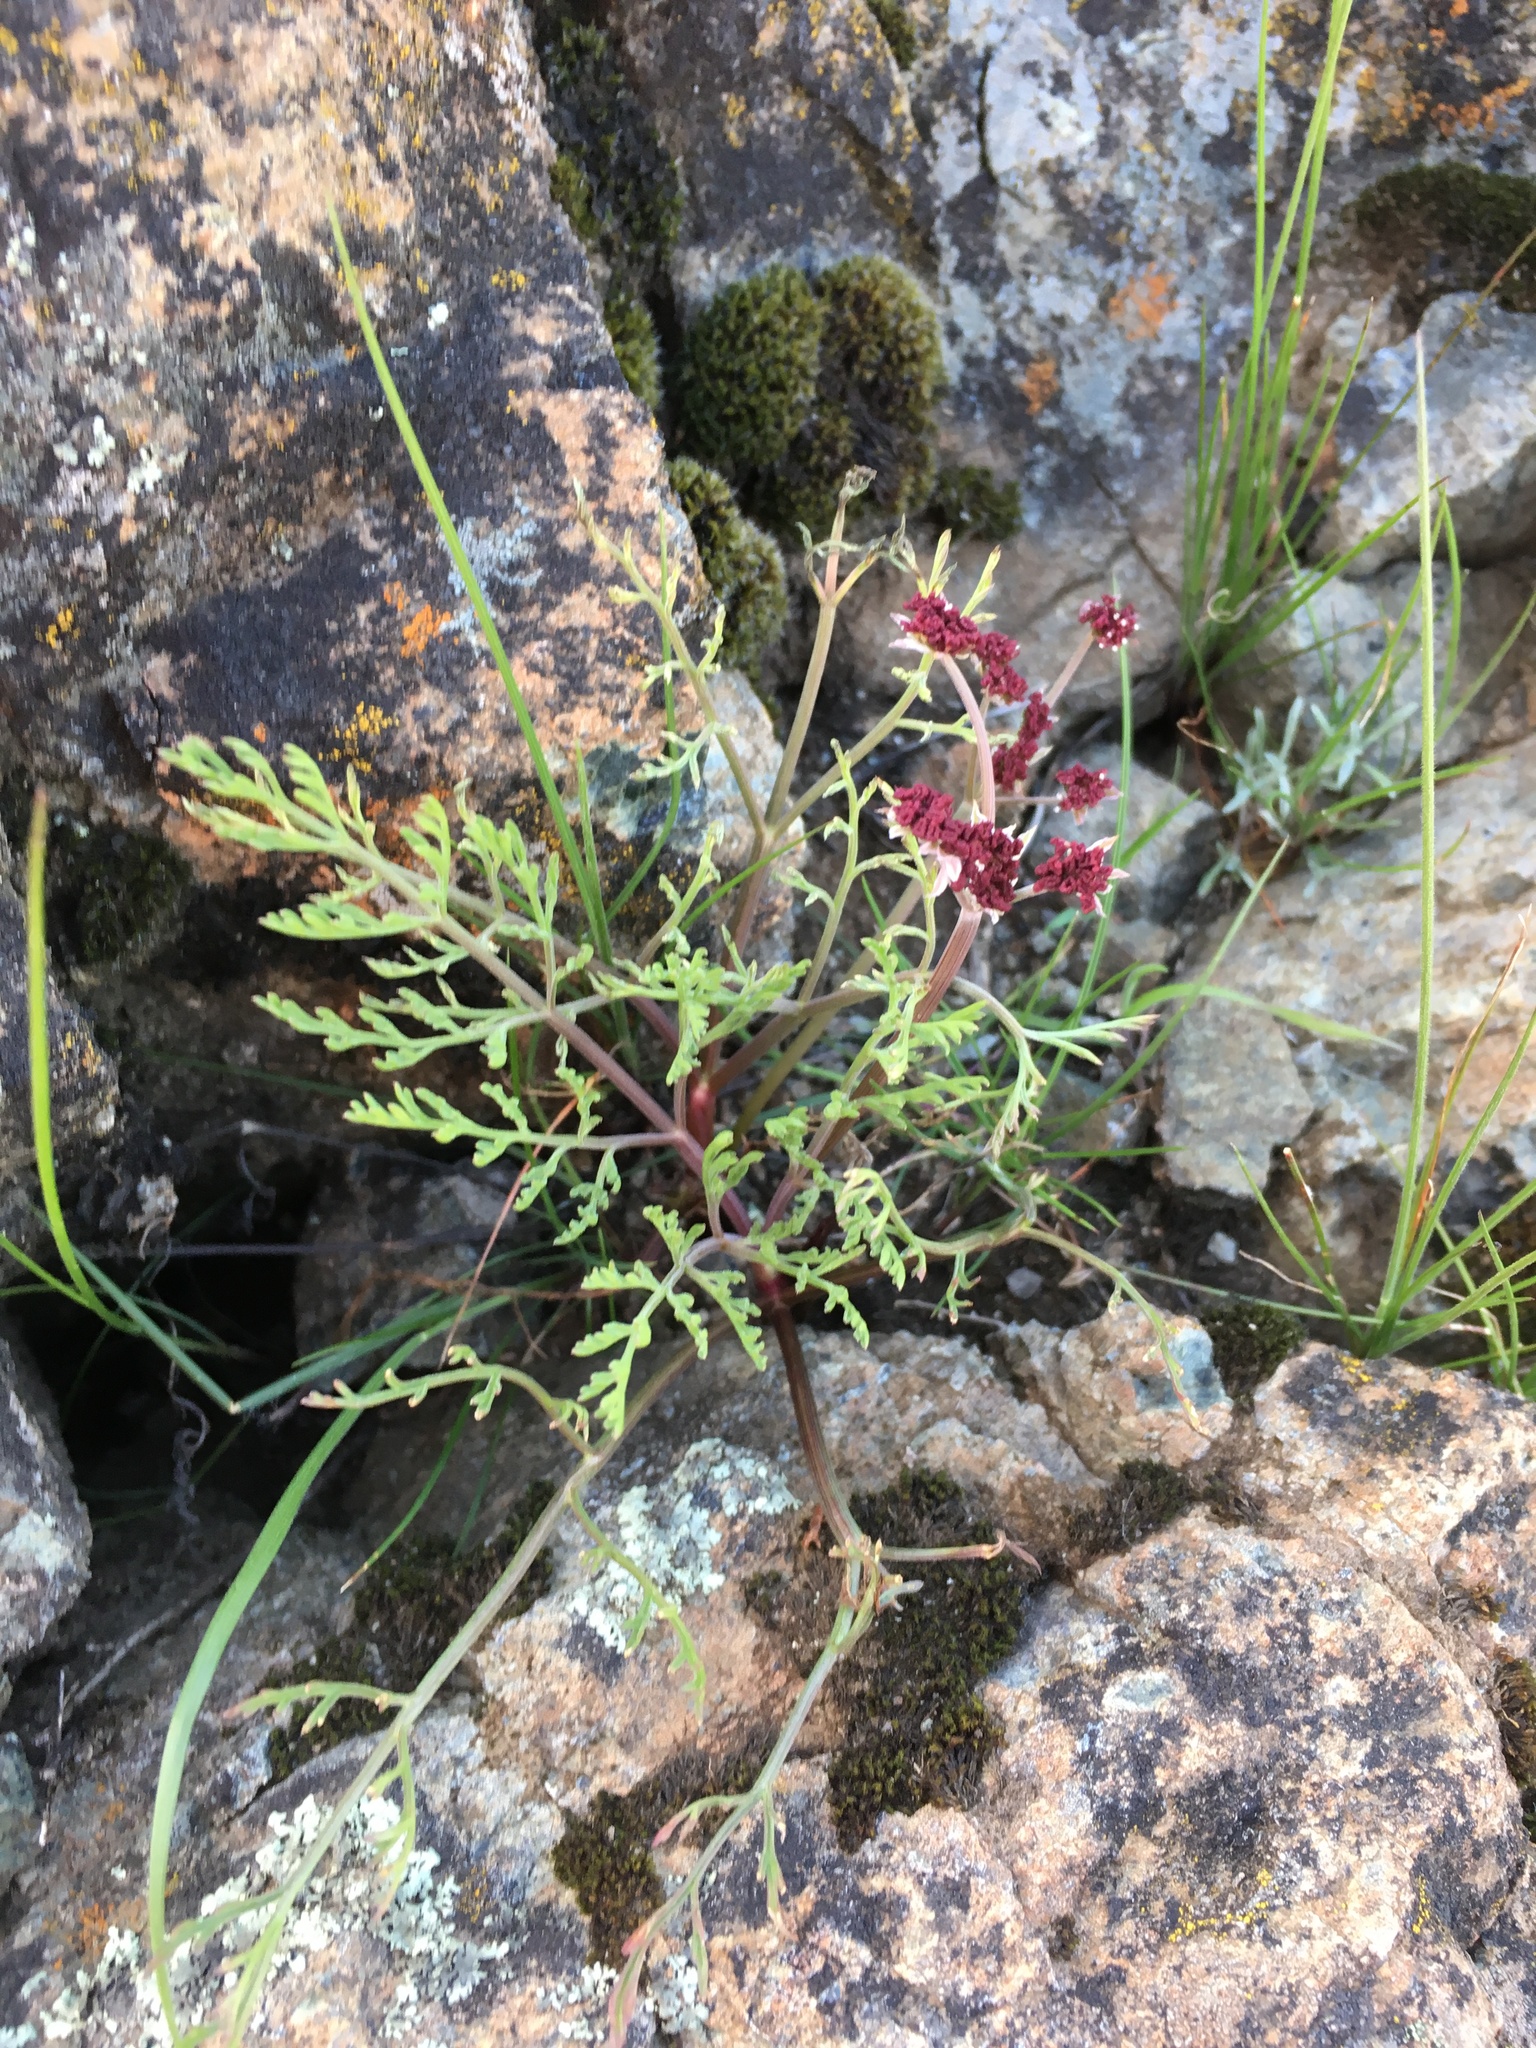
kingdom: Plantae
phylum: Tracheophyta
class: Magnoliopsida
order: Apiales
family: Apiaceae
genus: Lomatium
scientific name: Lomatium hooveri
